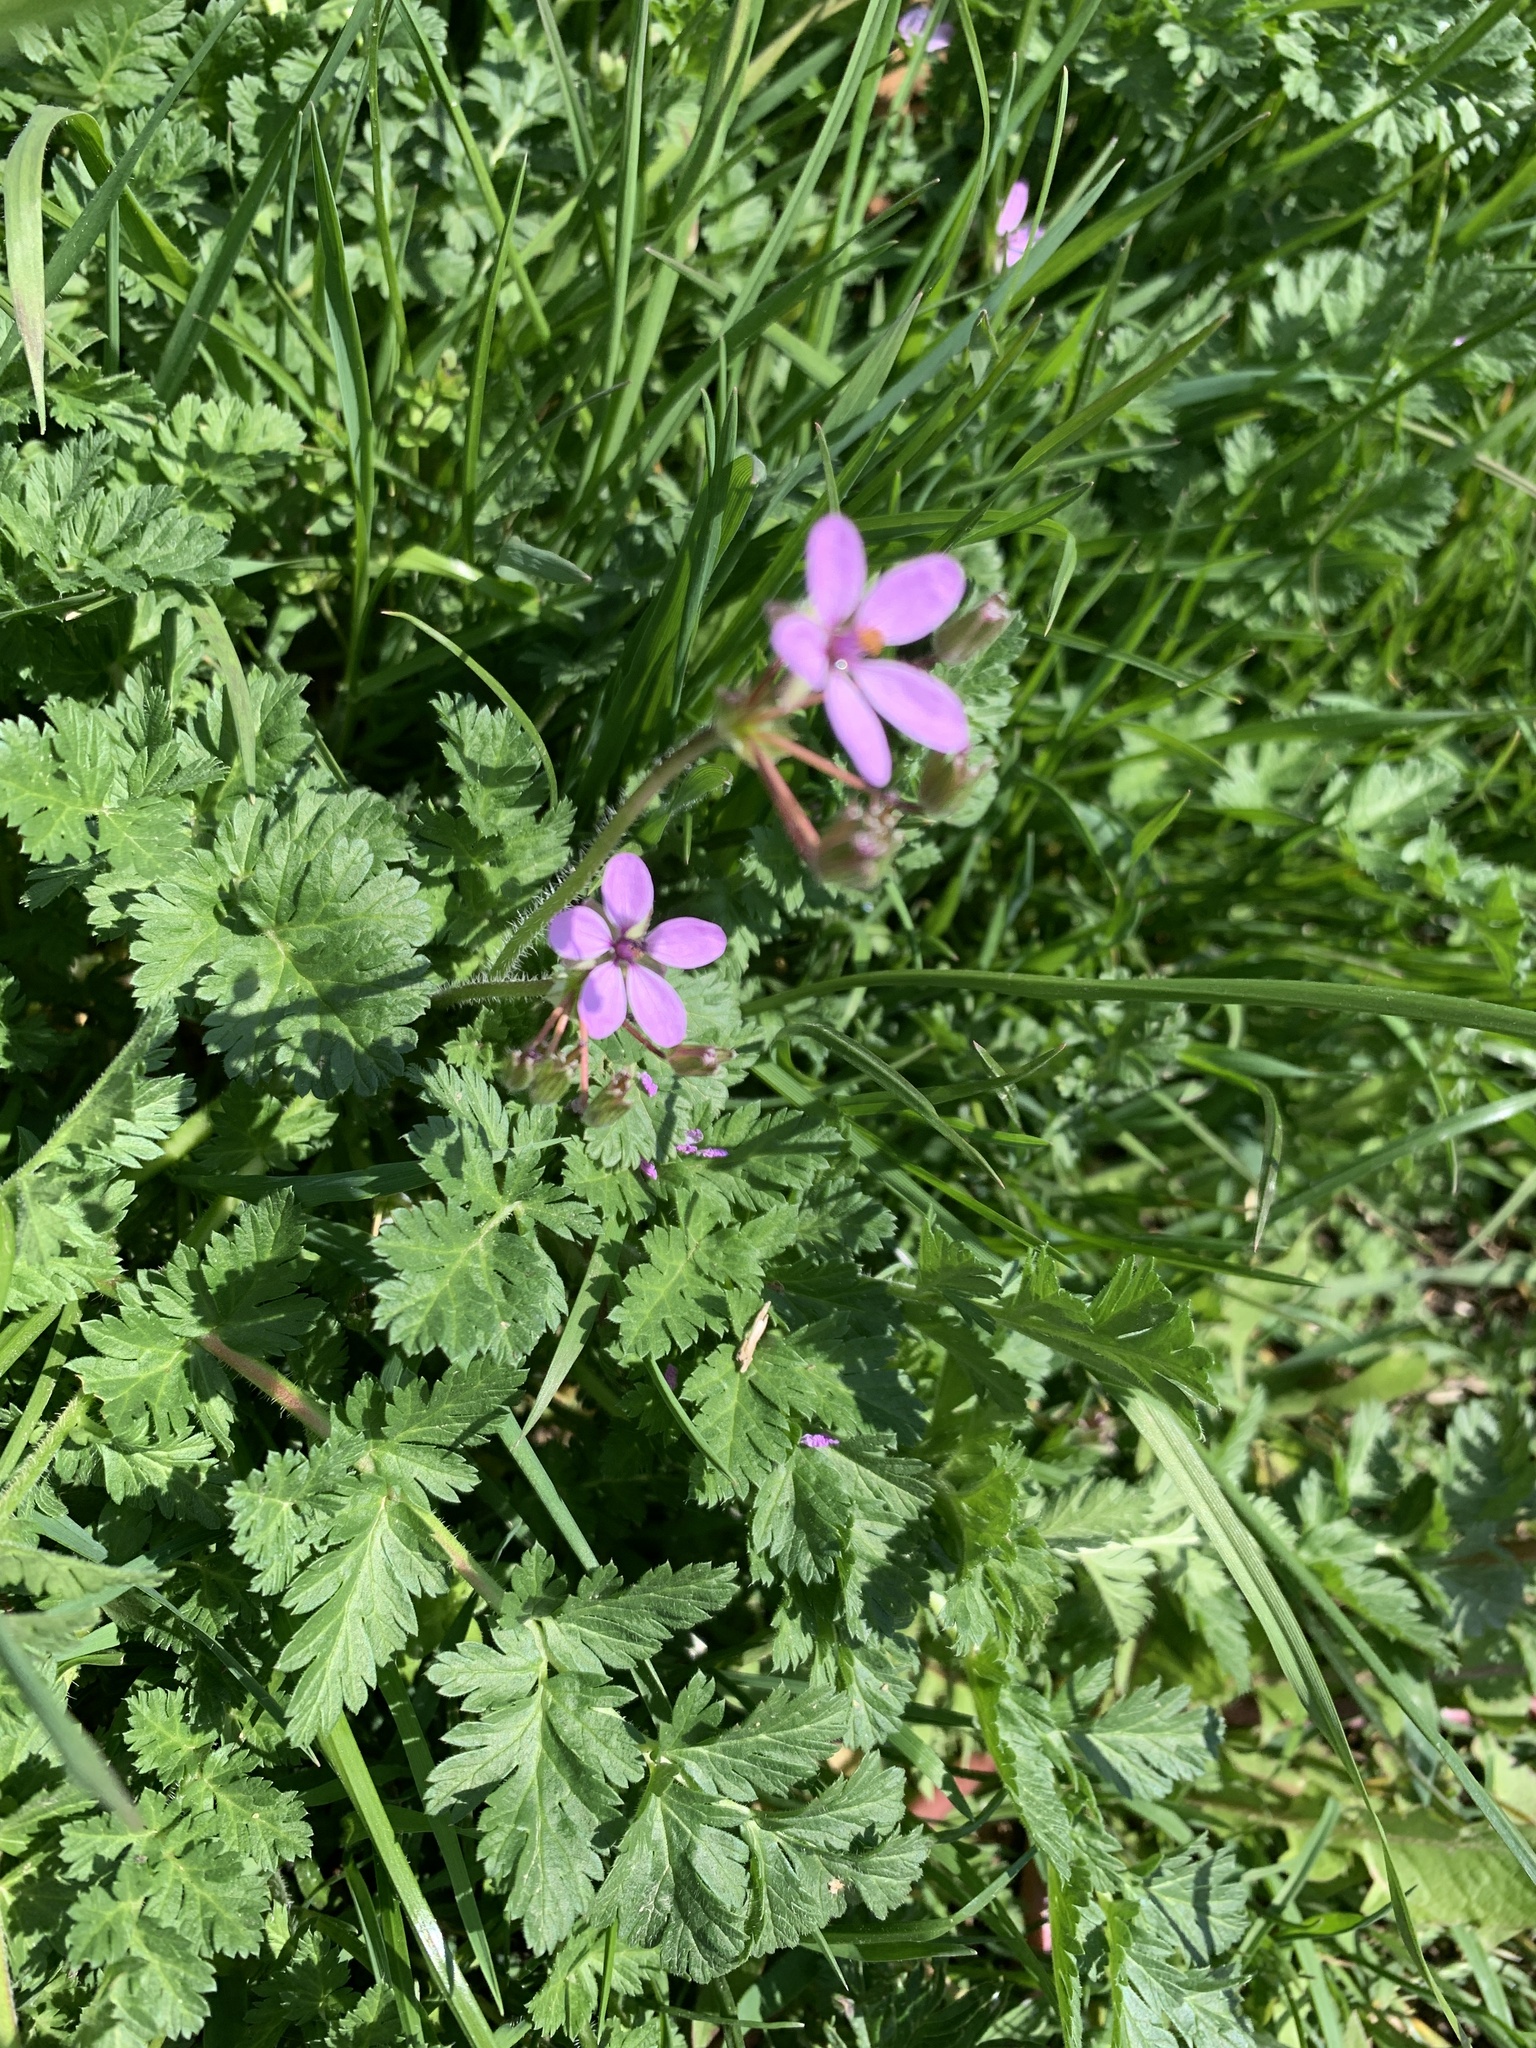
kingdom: Plantae
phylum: Tracheophyta
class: Magnoliopsida
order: Geraniales
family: Geraniaceae
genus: Erodium
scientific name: Erodium cicutarium
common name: Common stork's-bill
